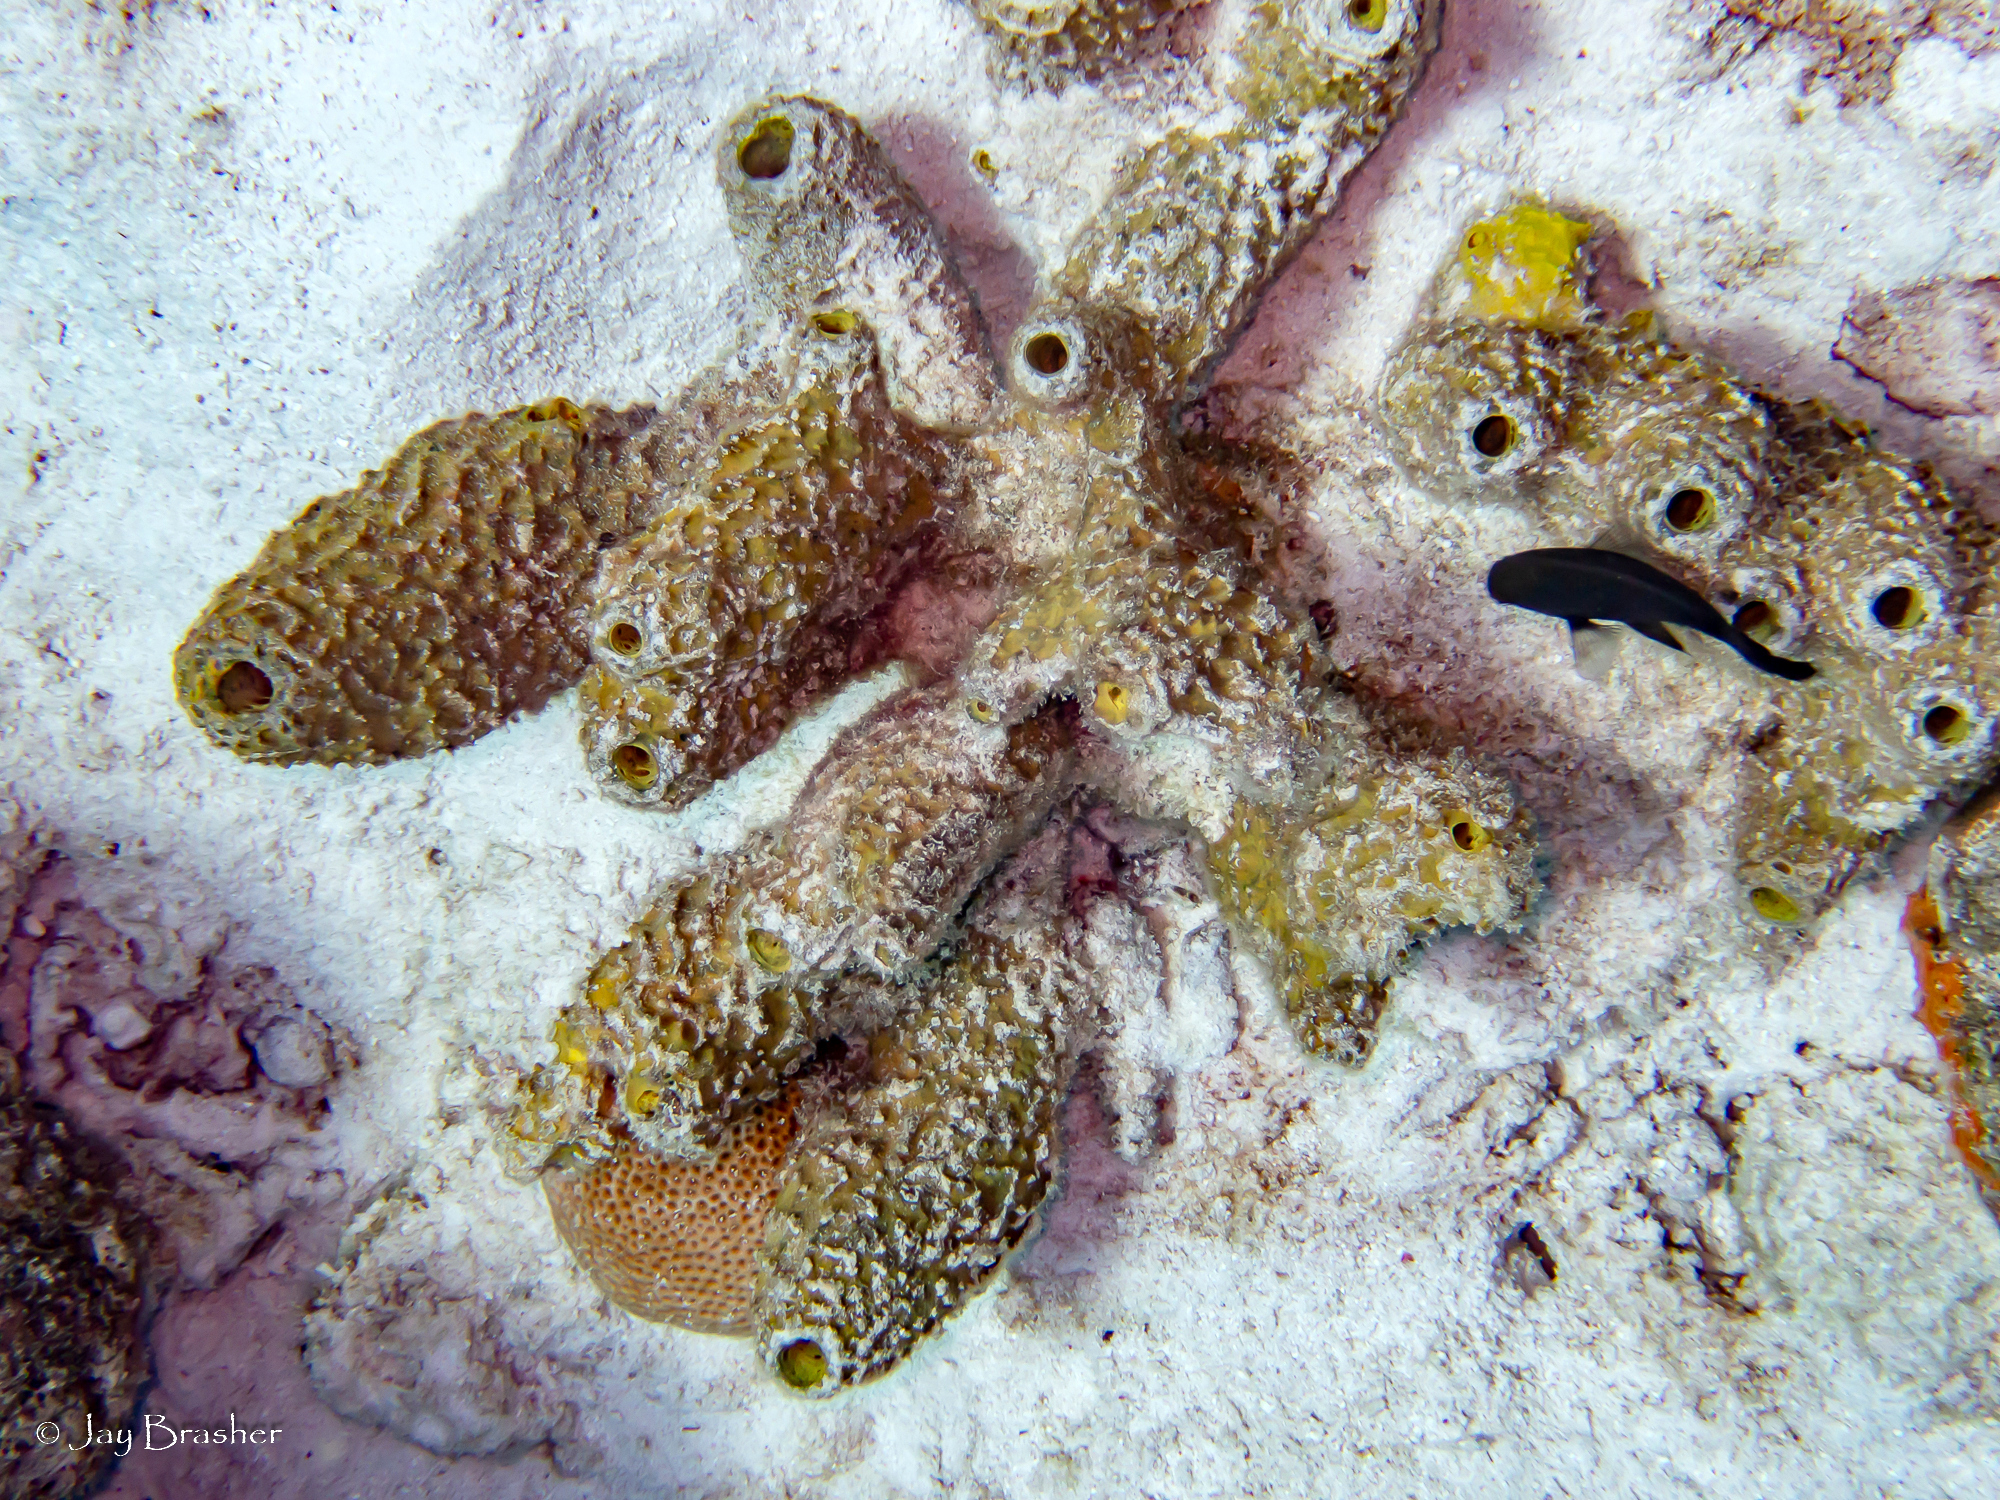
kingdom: Animalia
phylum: Cnidaria
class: Anthozoa
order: Scleractinia
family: Rhizangiidae
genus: Siderastrea
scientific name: Siderastrea siderea
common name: Massive starlet coral
